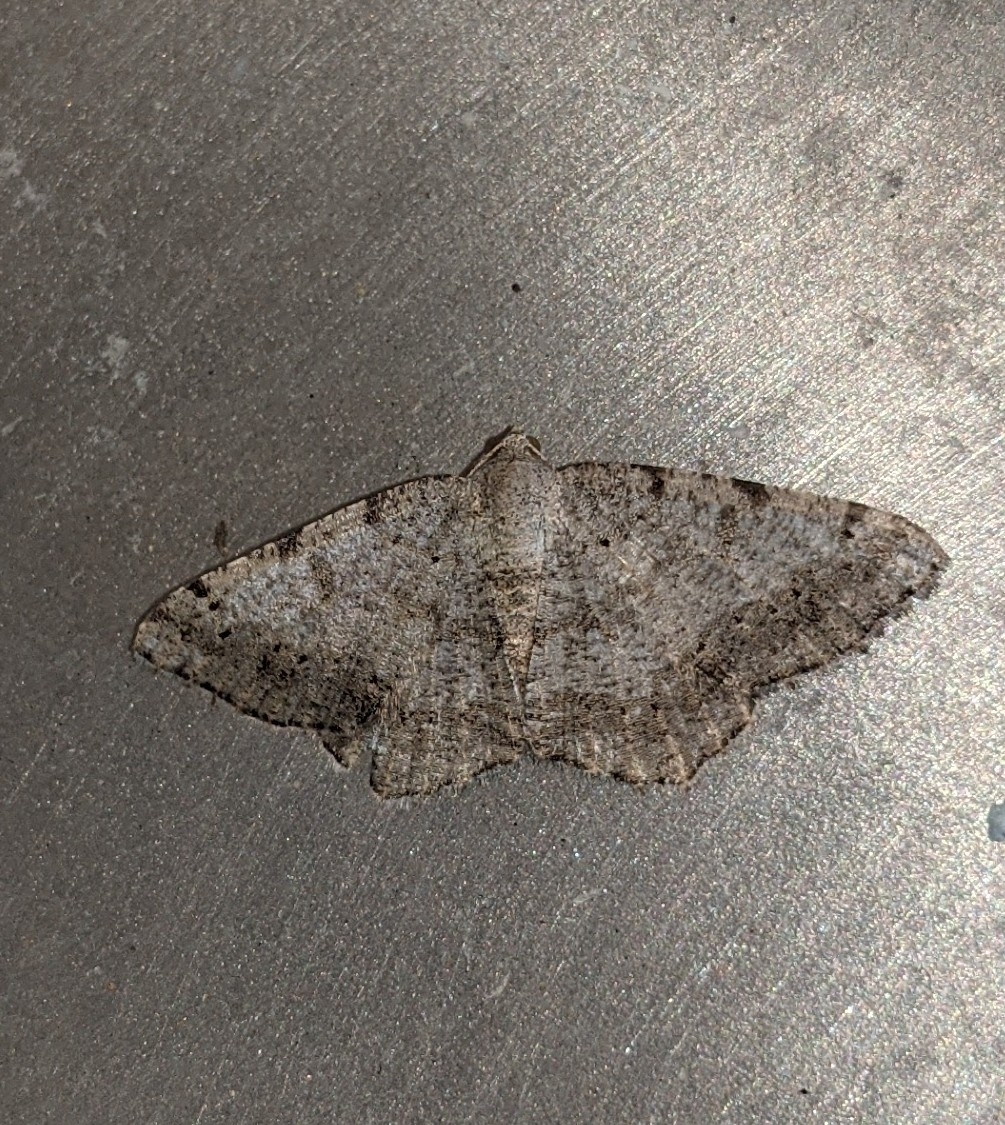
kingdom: Animalia
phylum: Arthropoda
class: Insecta
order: Lepidoptera
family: Geometridae
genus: Digrammia
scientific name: Digrammia ocellinata
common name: Faint-spotted angle
